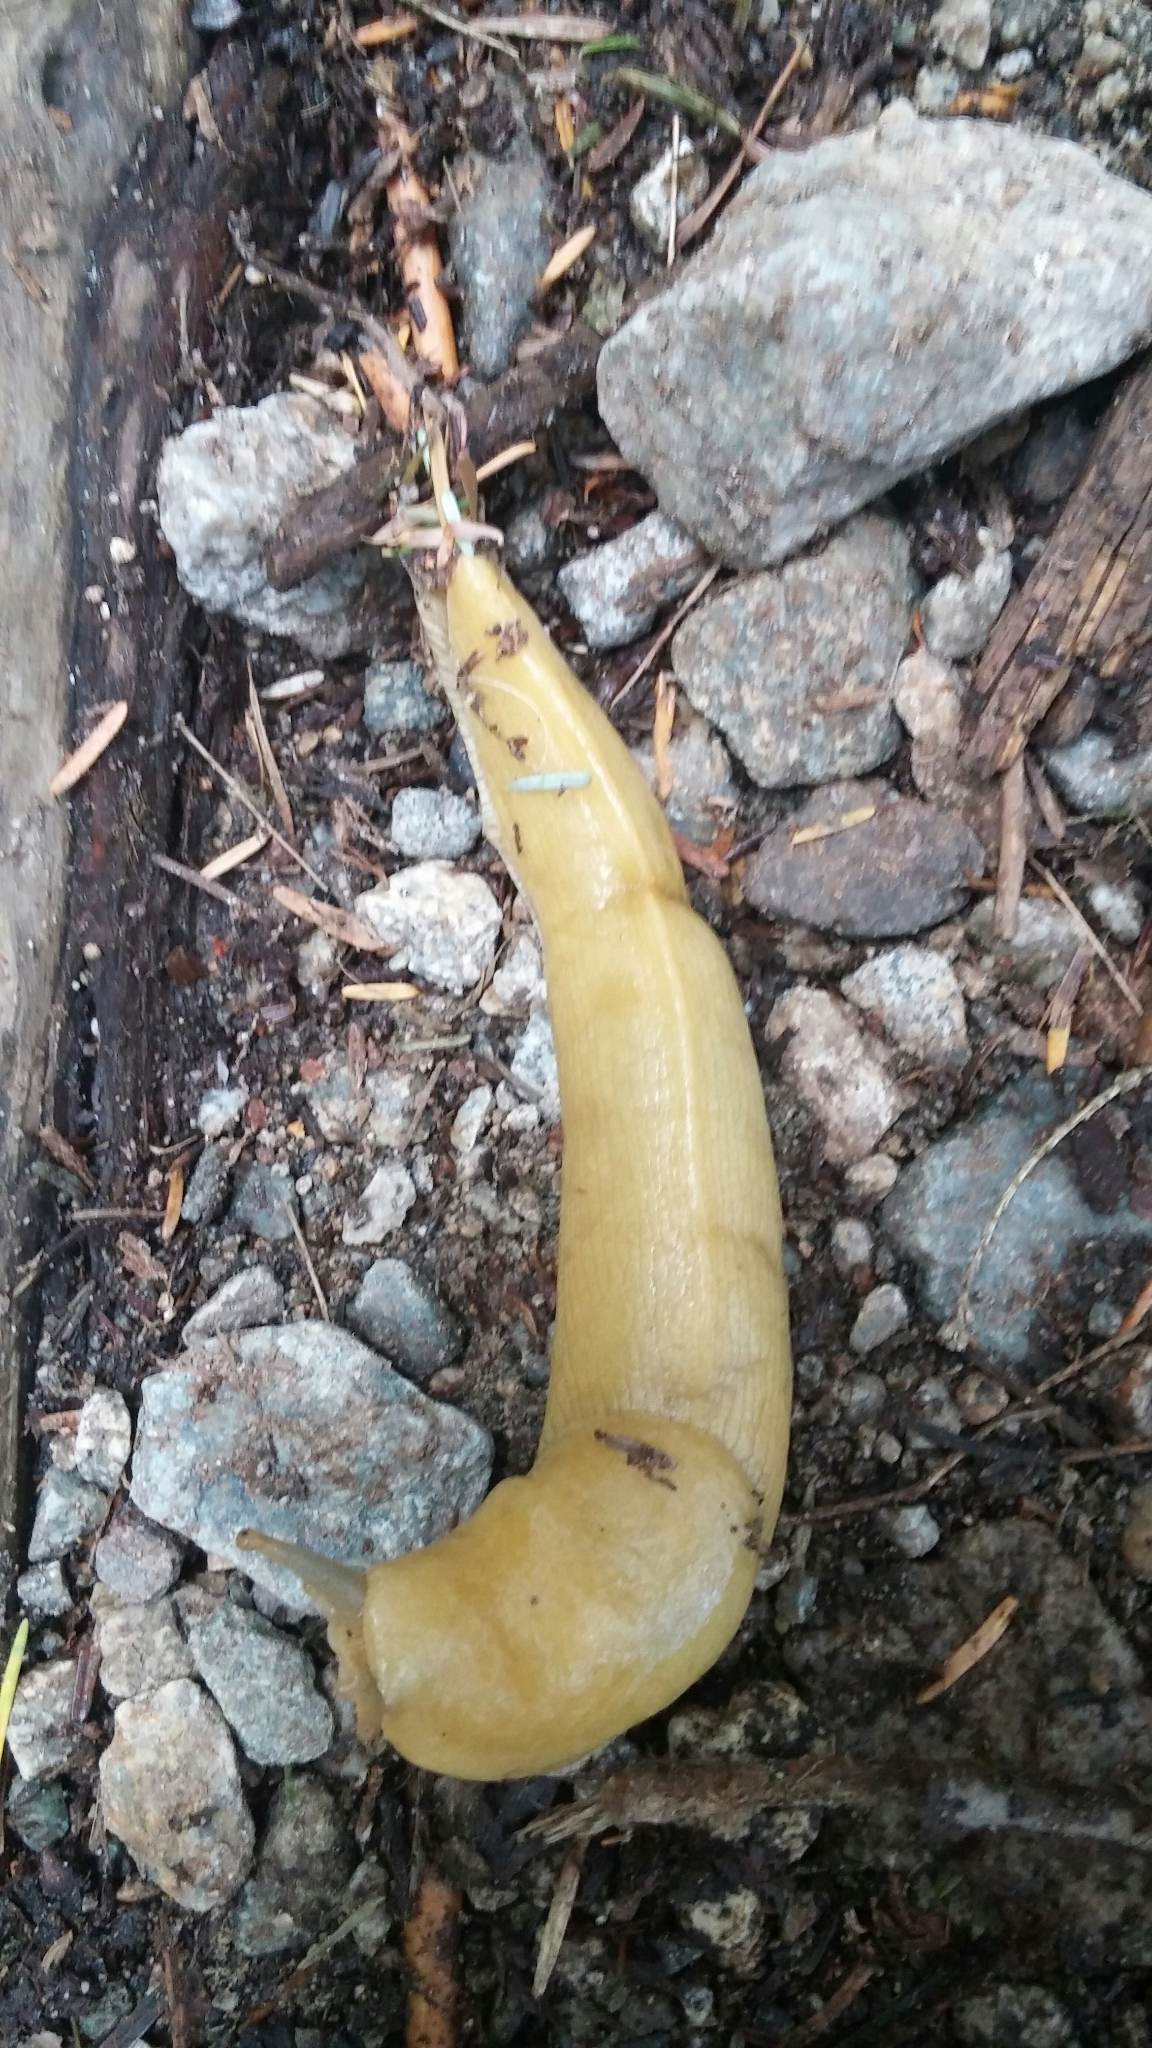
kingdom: Animalia
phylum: Mollusca
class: Gastropoda
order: Stylommatophora
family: Ariolimacidae
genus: Ariolimax
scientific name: Ariolimax columbianus
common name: Pacific banana slug
